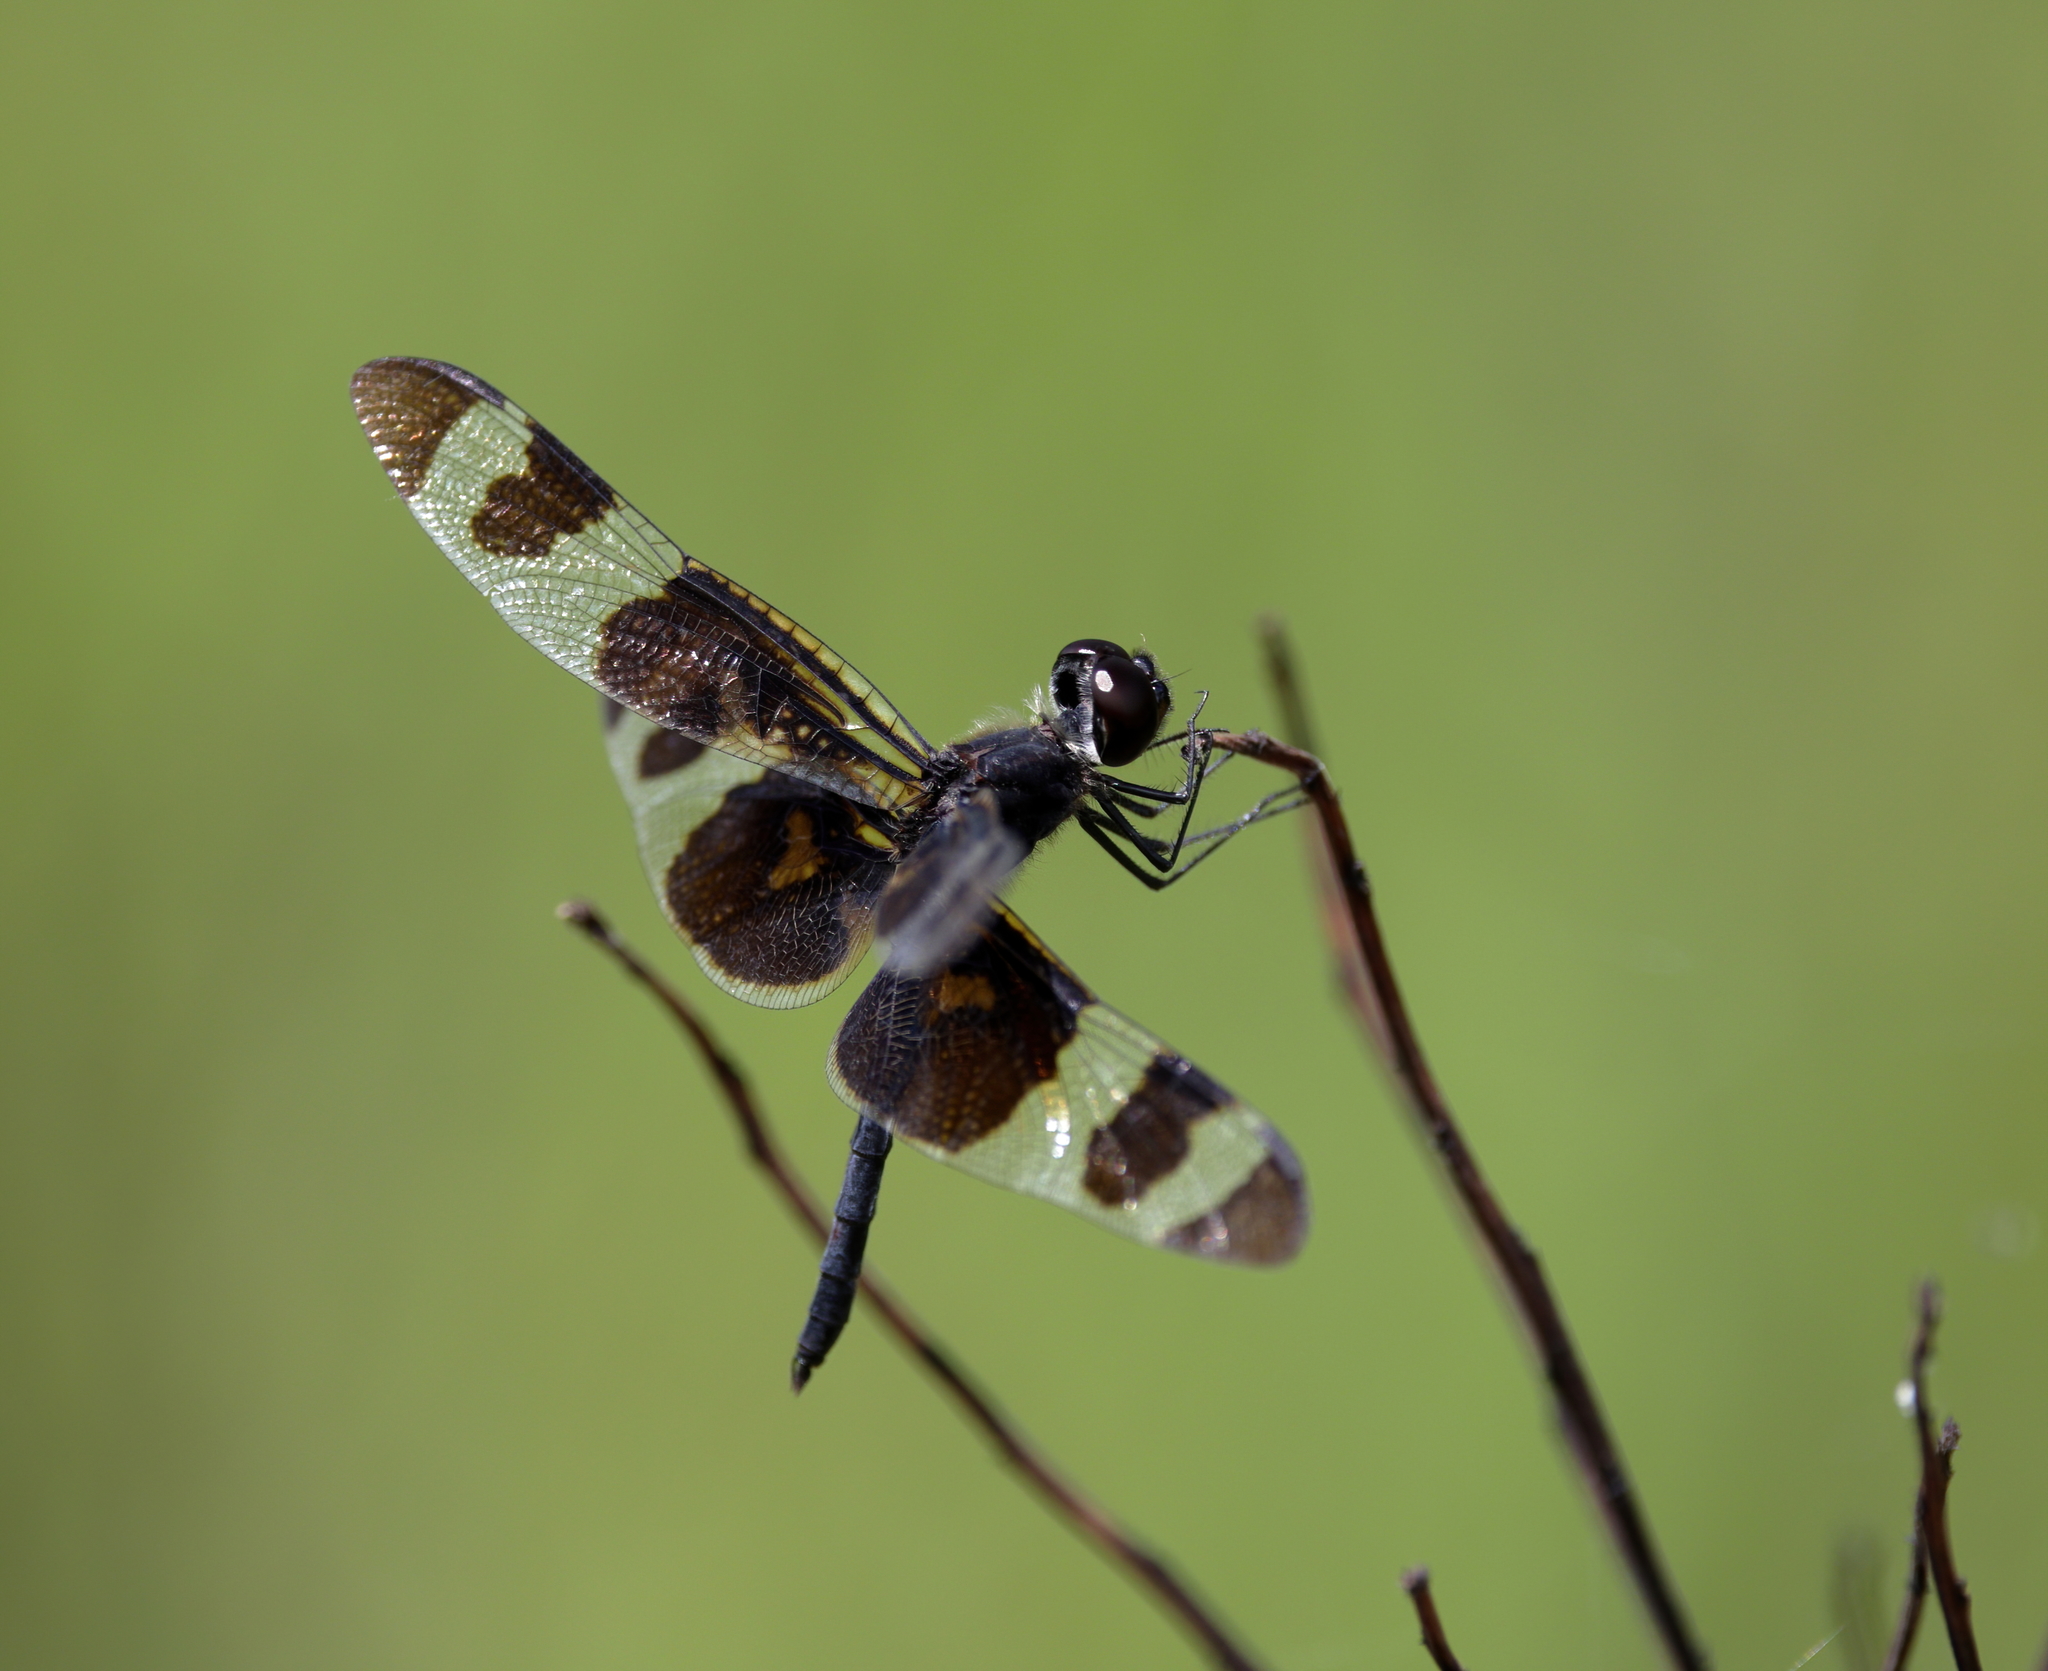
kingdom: Animalia
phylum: Arthropoda
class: Insecta
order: Odonata
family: Libellulidae
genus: Celithemis
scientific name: Celithemis fasciata
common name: Banded pennant
